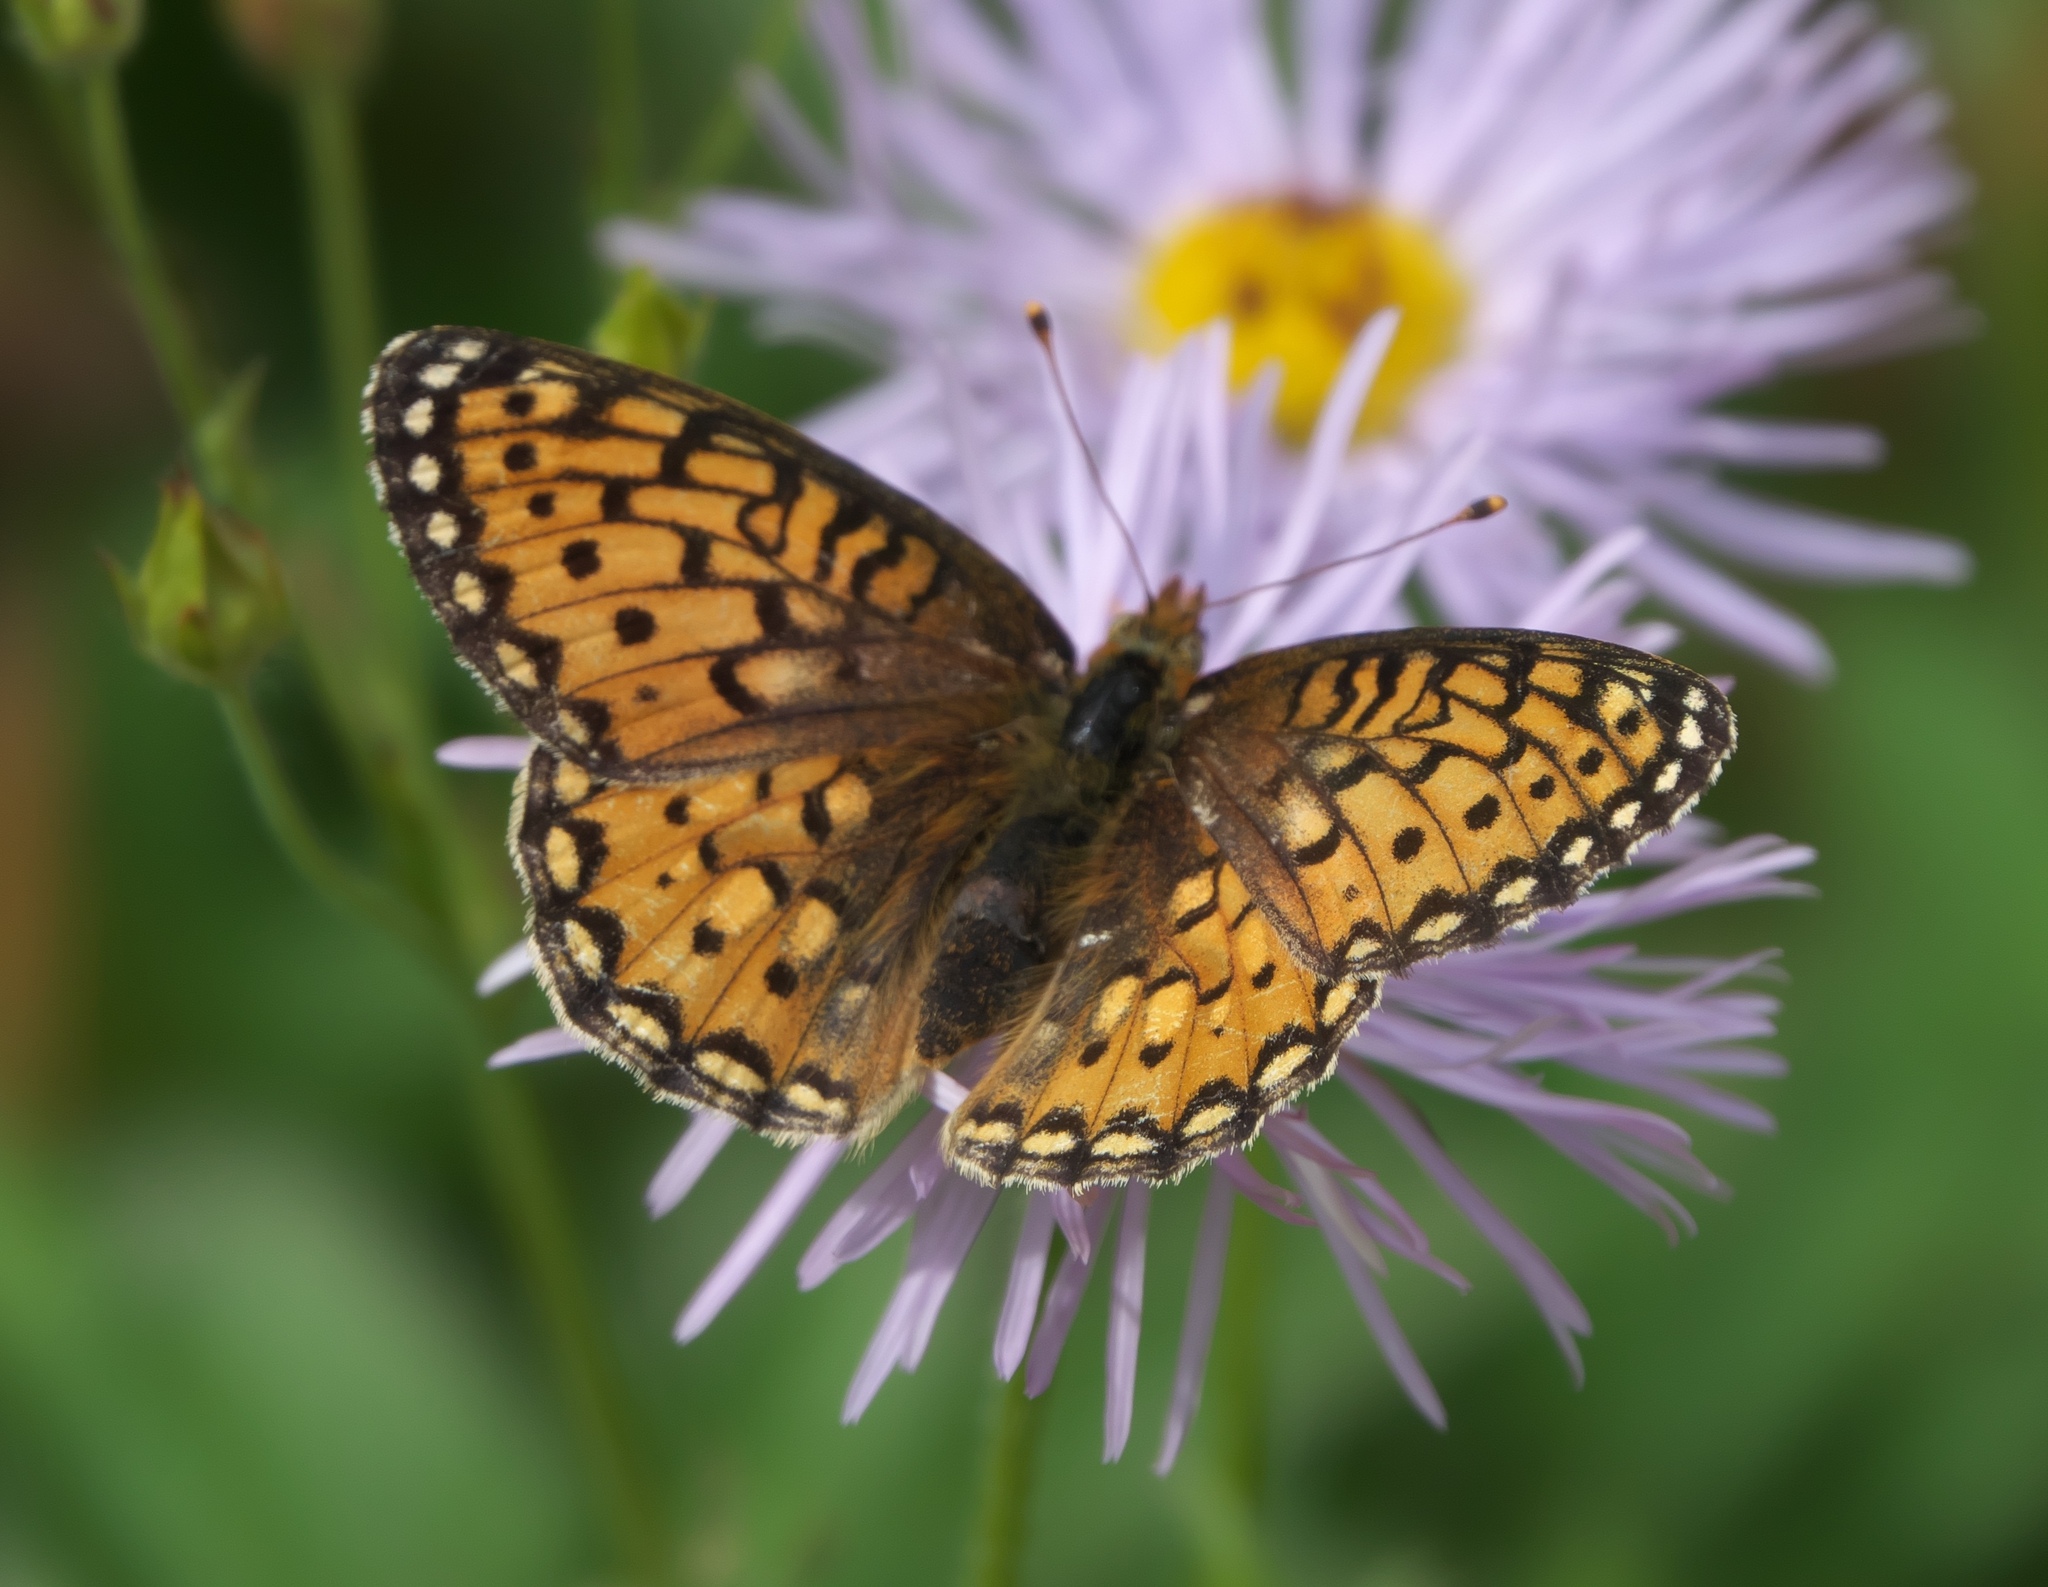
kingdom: Animalia
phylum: Arthropoda
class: Insecta
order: Lepidoptera
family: Nymphalidae
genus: Speyeria
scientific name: Speyeria mormonia
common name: Mormon fritillary
